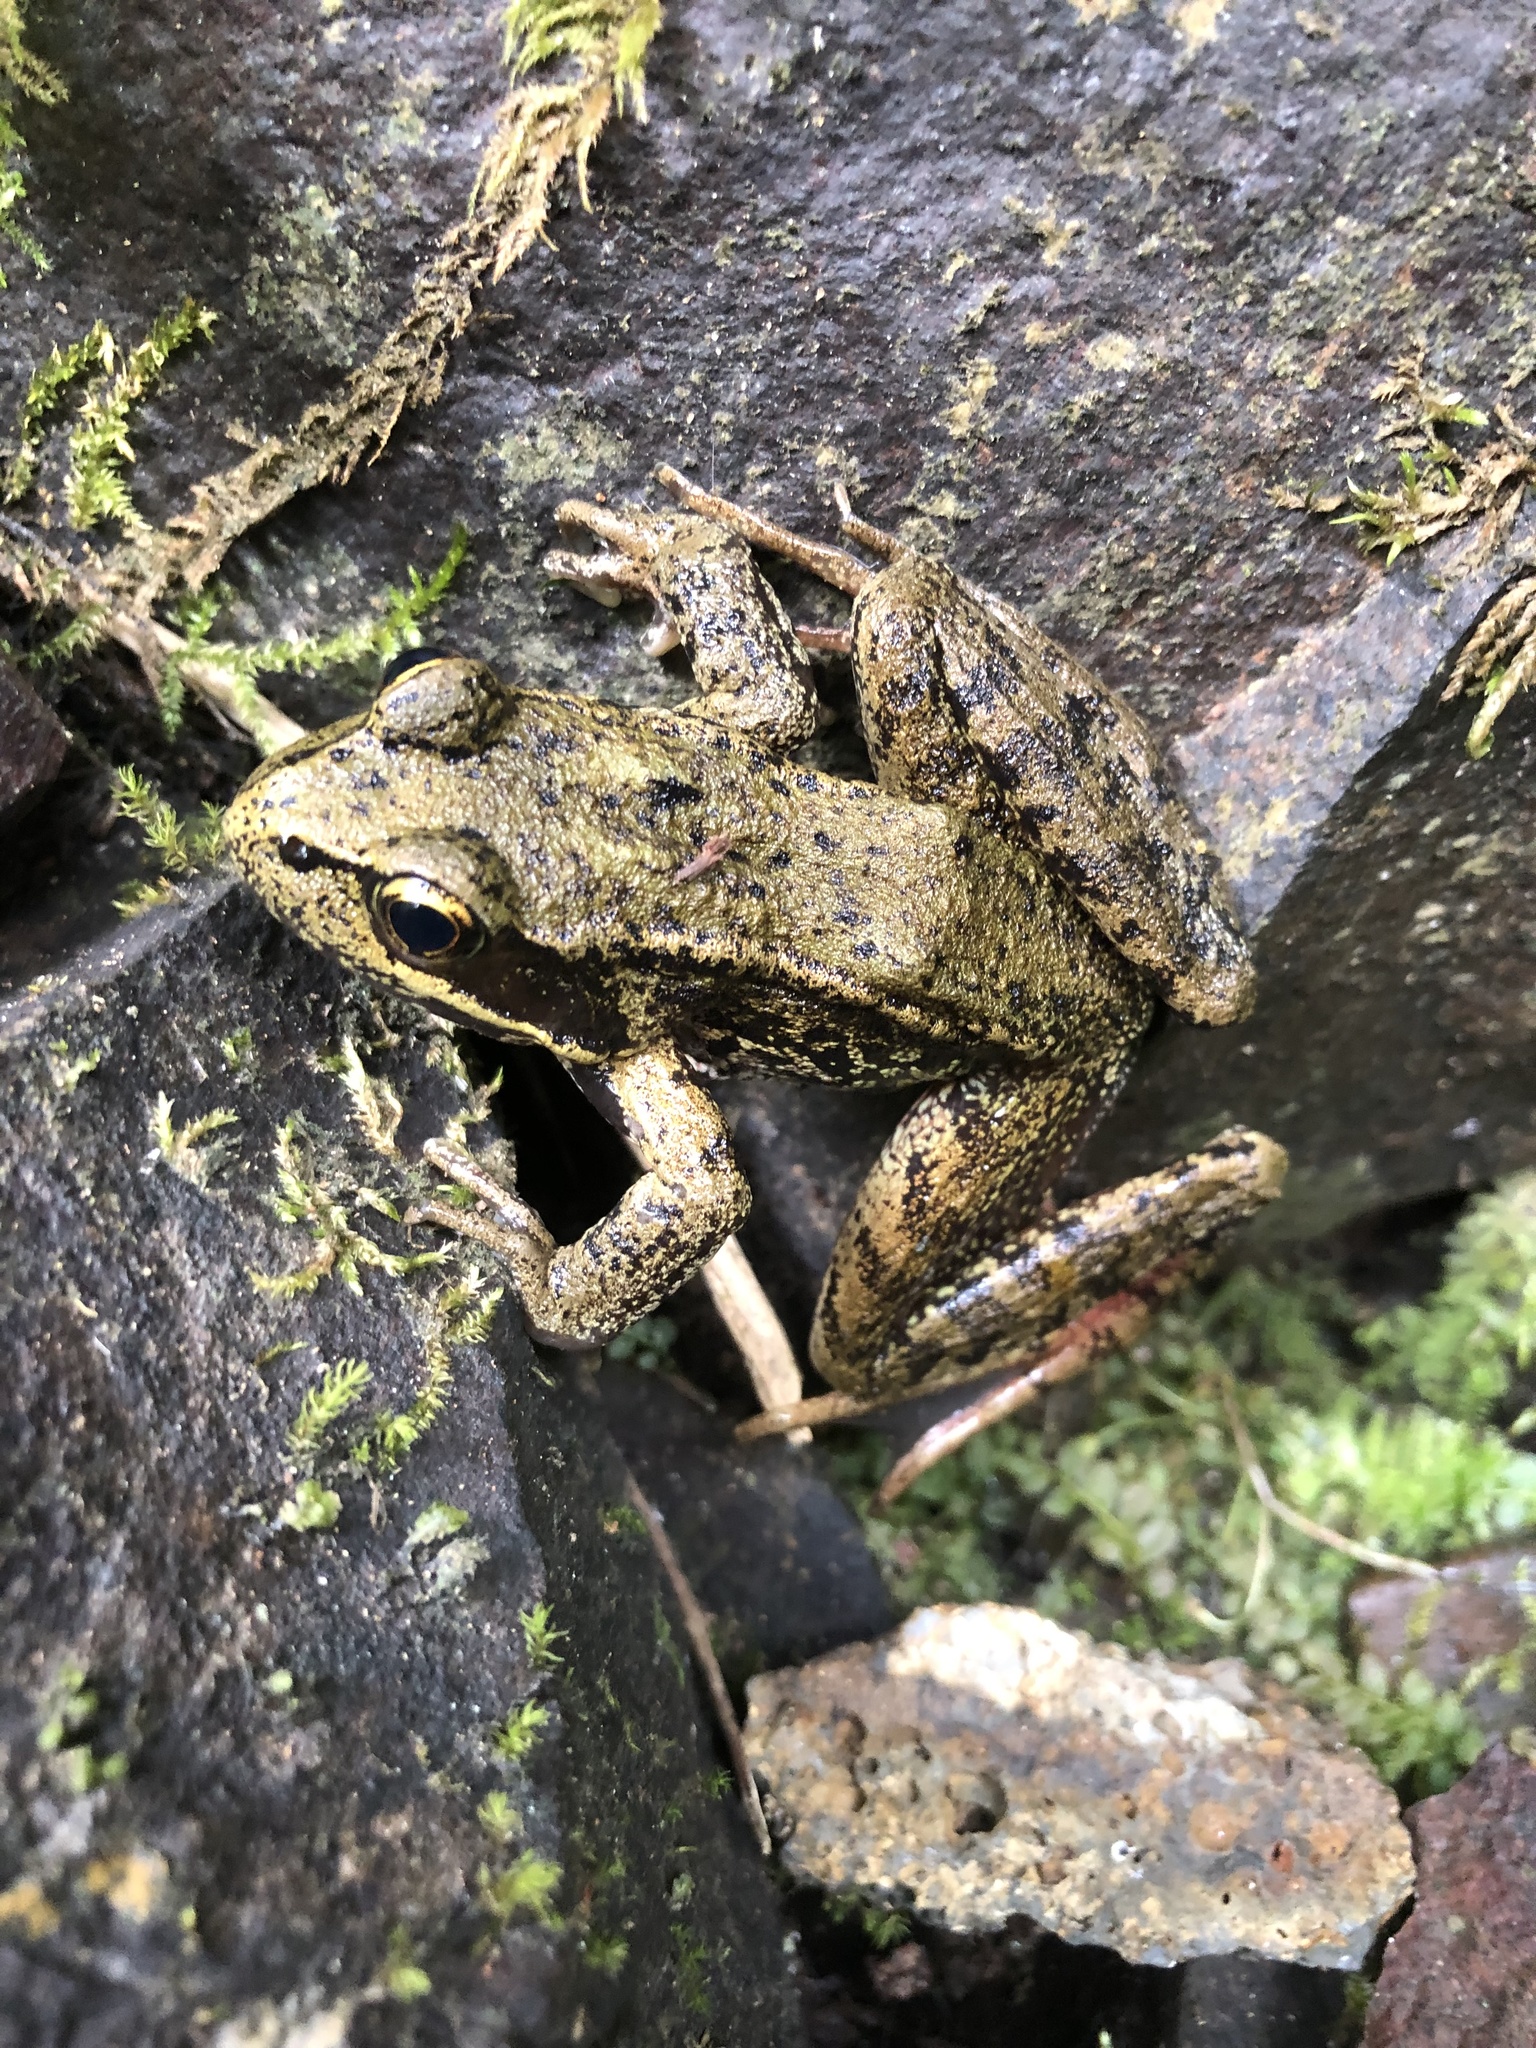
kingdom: Animalia
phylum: Chordata
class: Amphibia
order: Anura
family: Ranidae
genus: Rana
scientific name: Rana aurora
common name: Red-legged frog
